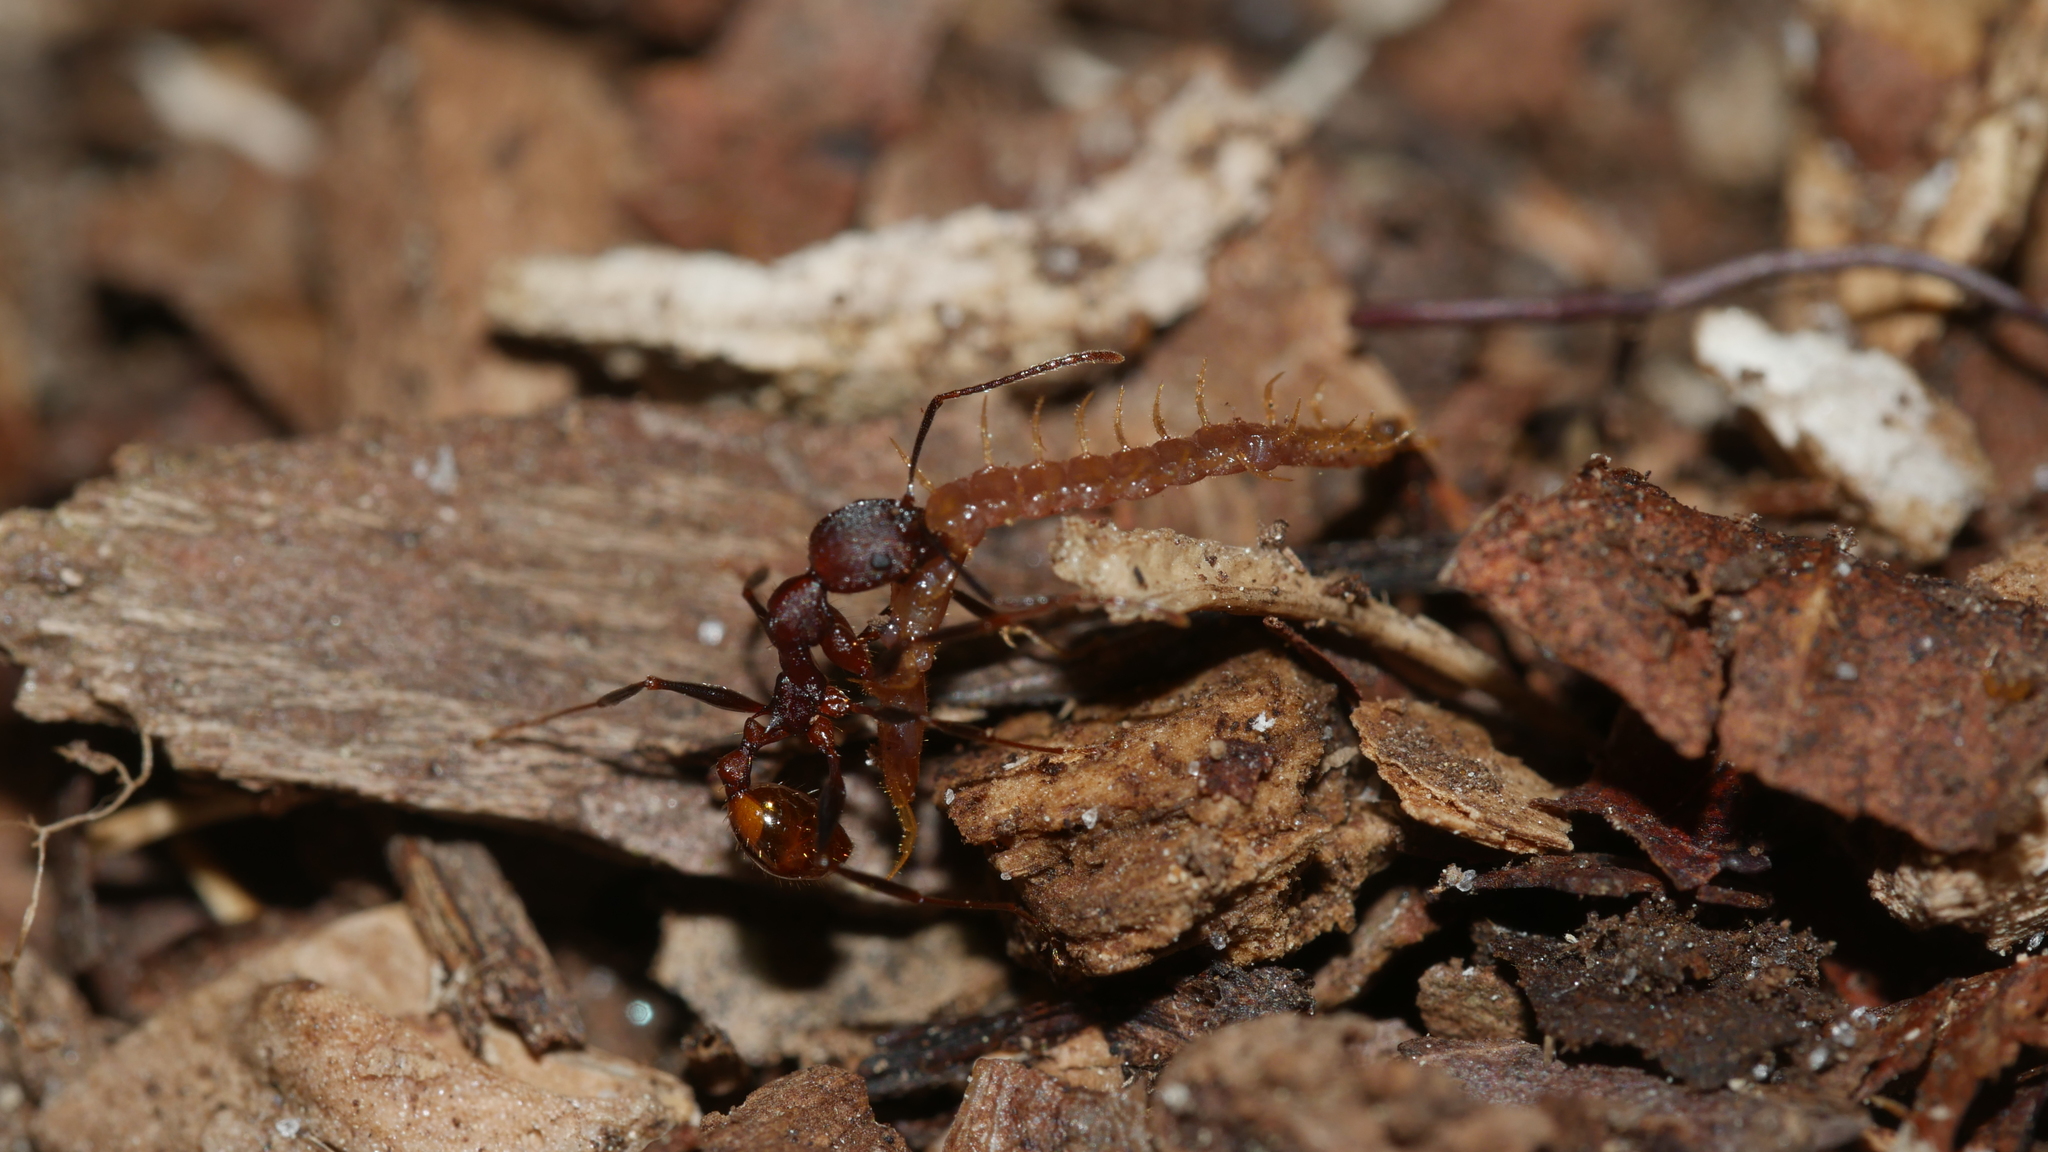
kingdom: Animalia
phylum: Arthropoda
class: Insecta
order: Hymenoptera
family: Formicidae
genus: Aphaenogaster
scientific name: Aphaenogaster lamellidens
